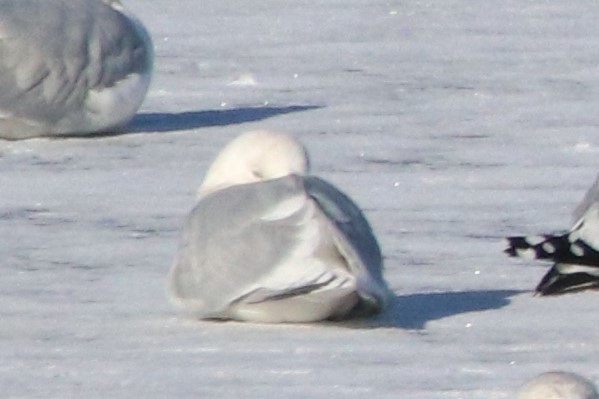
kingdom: Animalia
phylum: Chordata
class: Aves
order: Charadriiformes
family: Laridae
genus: Larus
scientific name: Larus glaucoides
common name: Iceland gull
